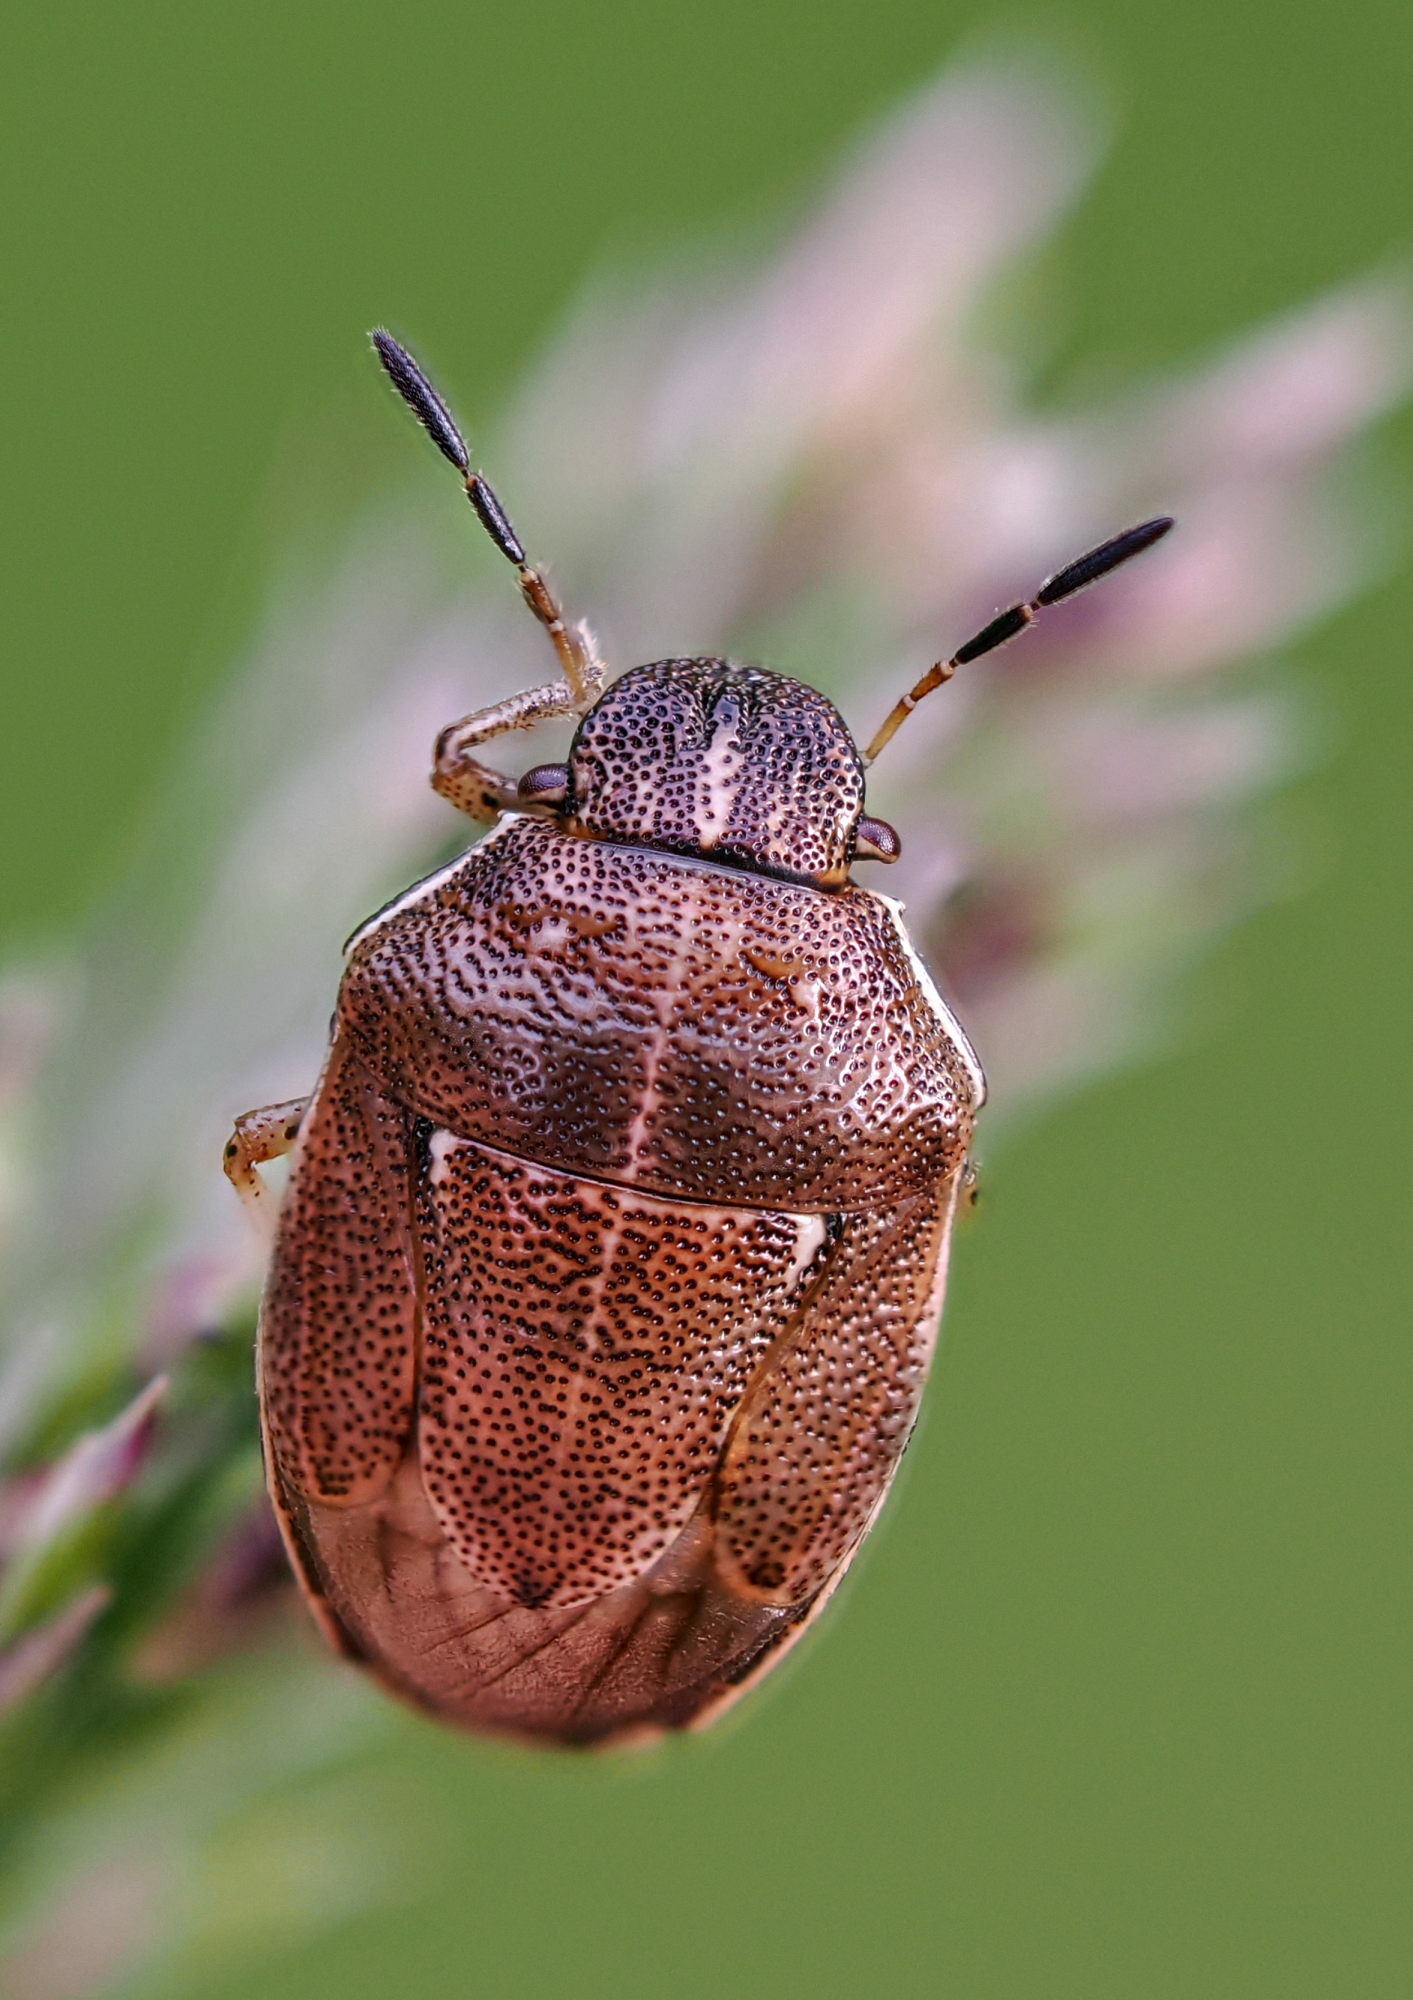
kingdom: Animalia
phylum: Arthropoda
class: Insecta
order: Hemiptera
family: Pentatomidae
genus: Neottiglossa
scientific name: Neottiglossa pusilla
